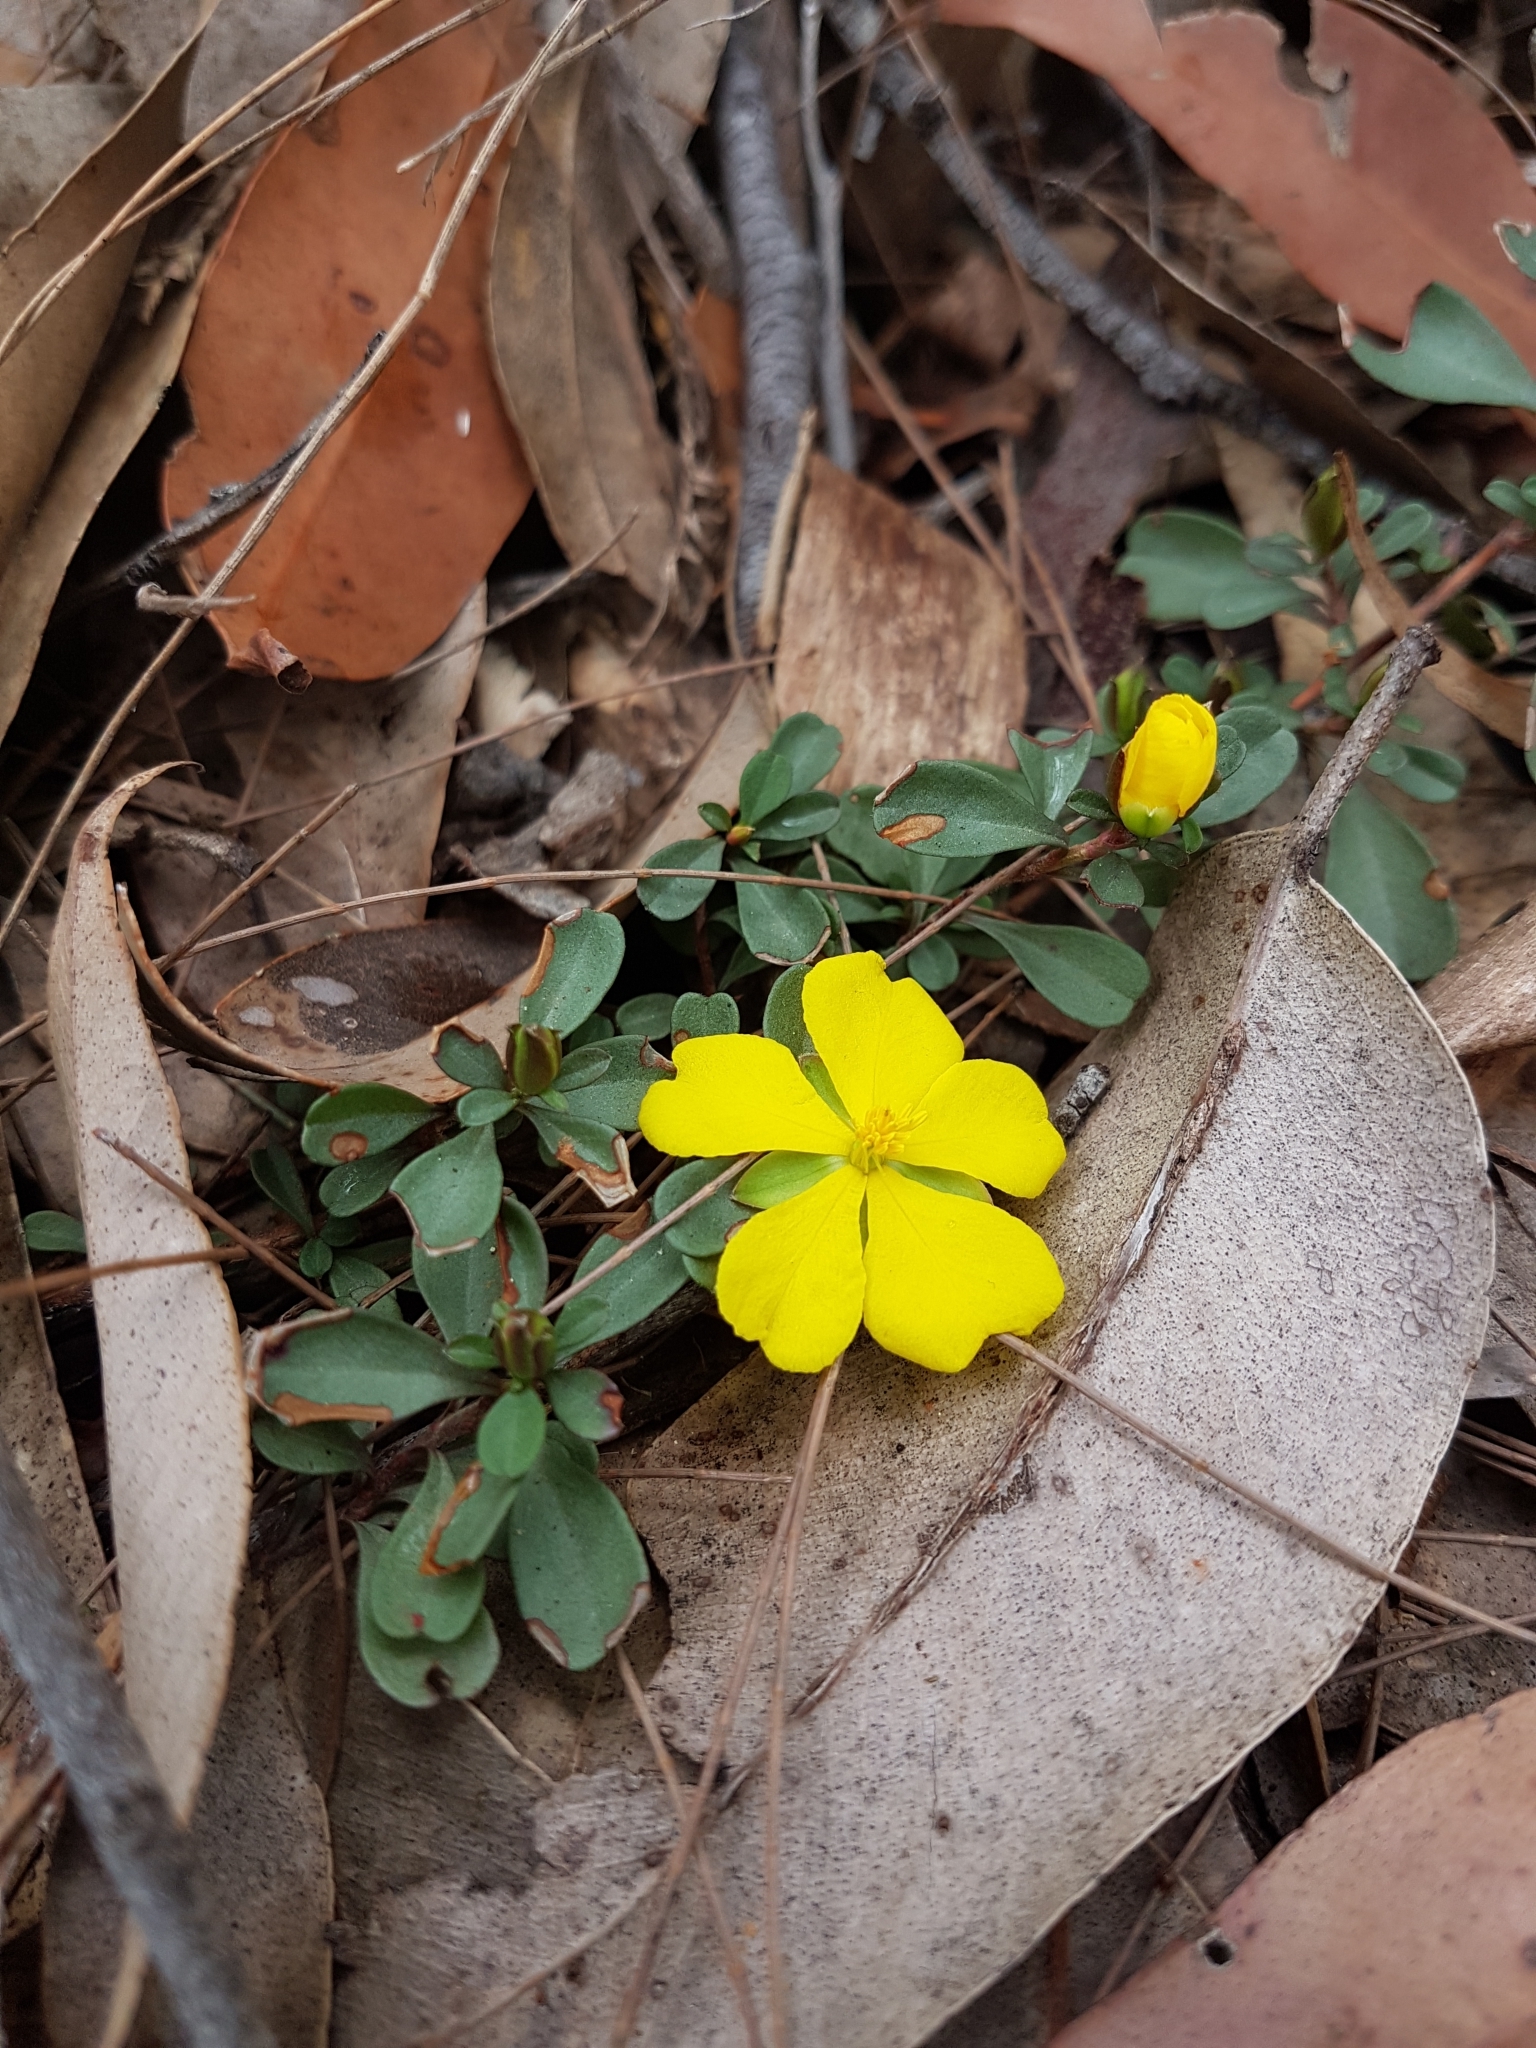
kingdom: Plantae
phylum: Tracheophyta
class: Magnoliopsida
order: Dilleniales
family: Dilleniaceae
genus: Hibbertia
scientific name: Hibbertia diffusa
